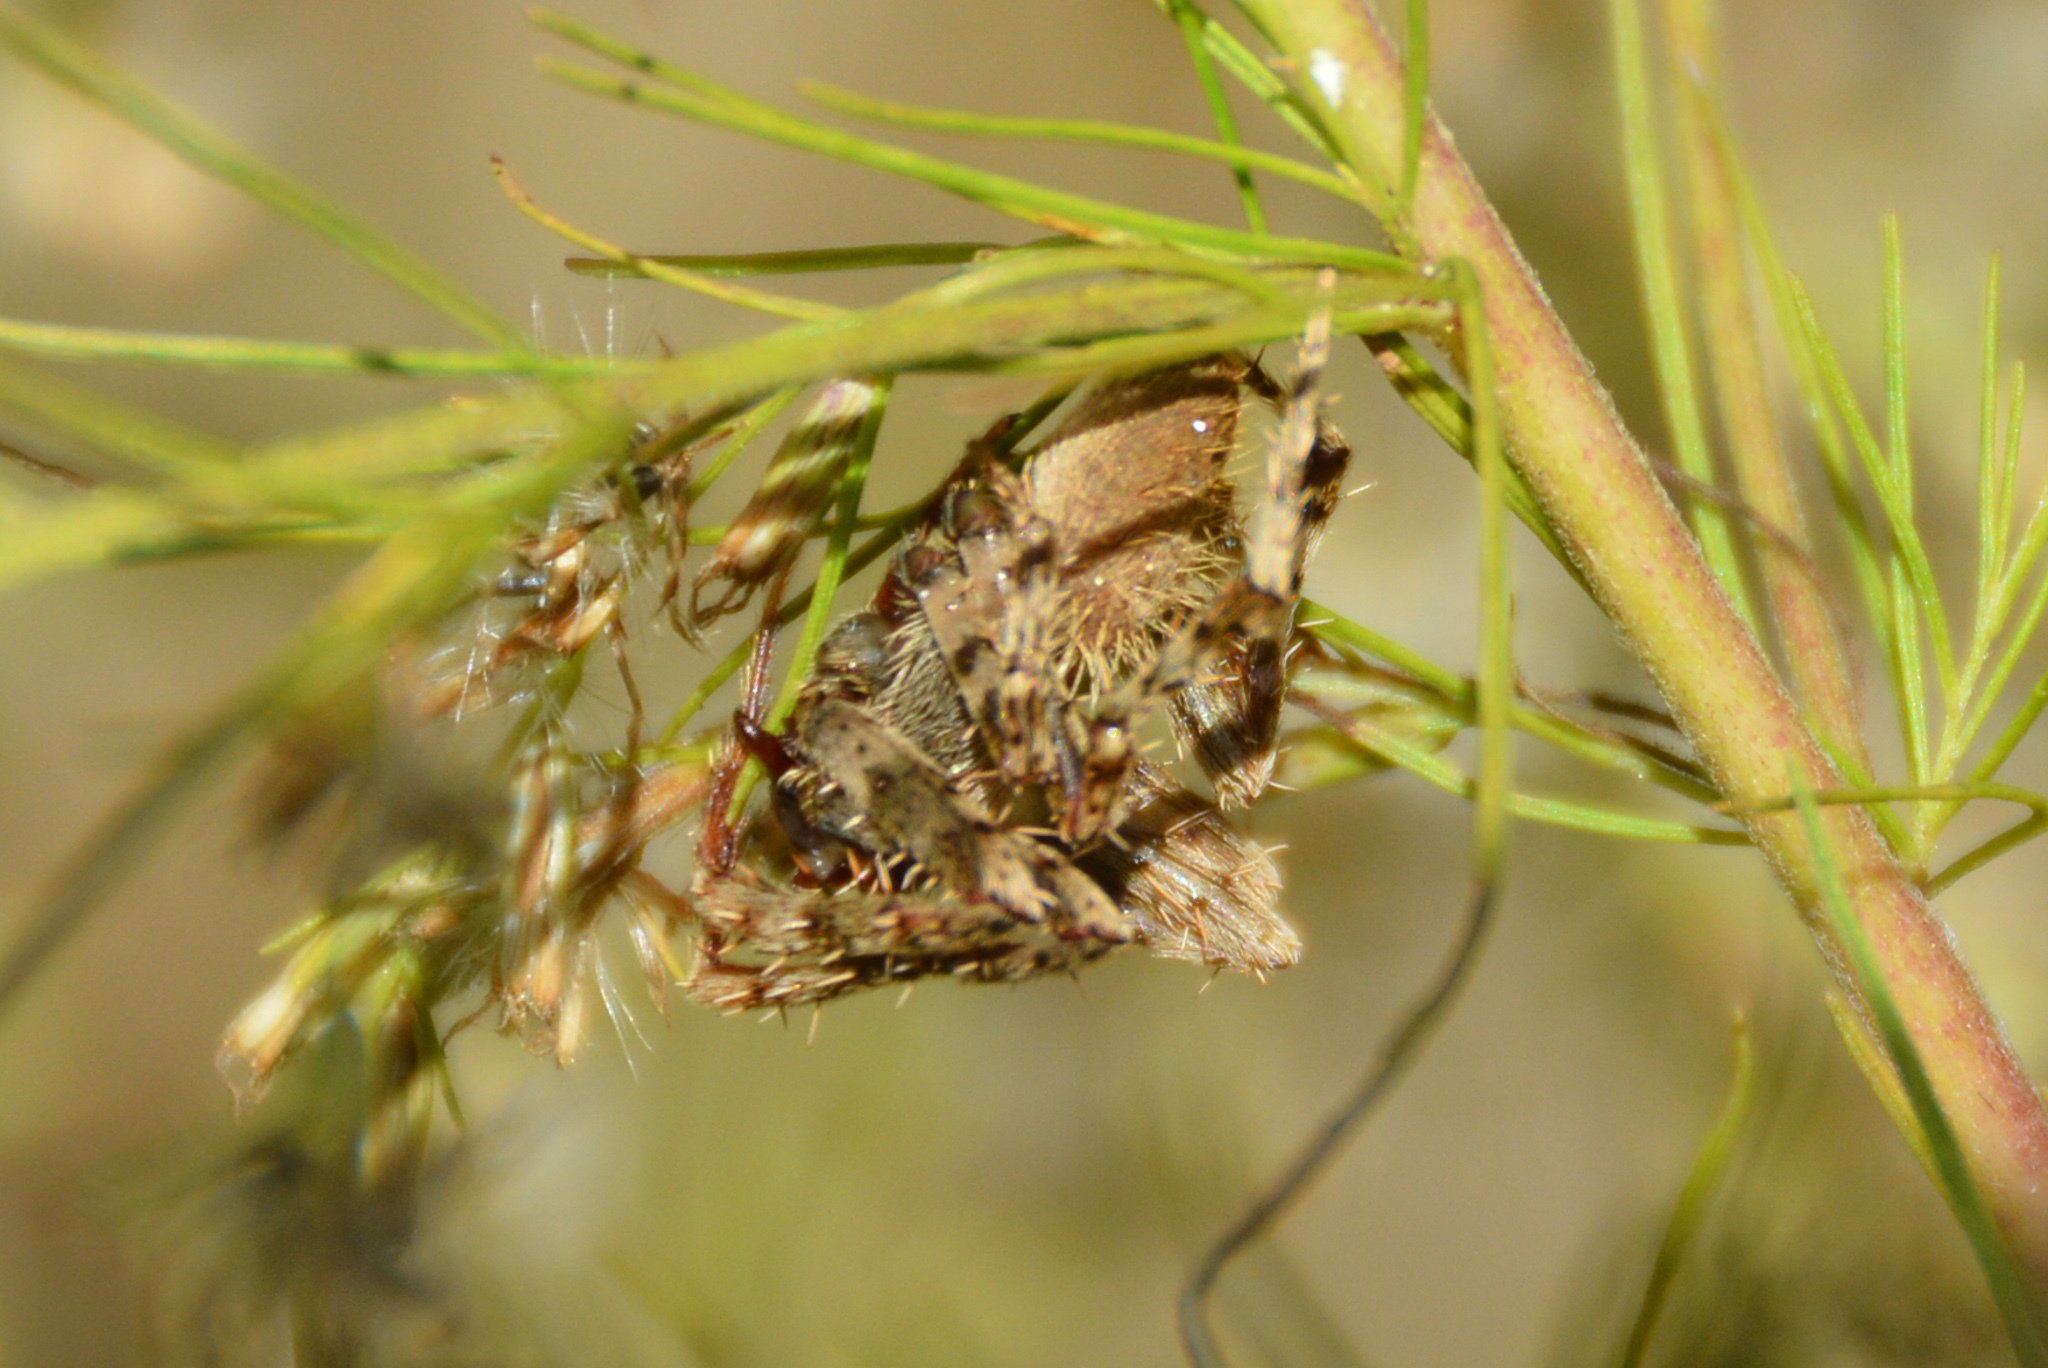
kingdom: Animalia
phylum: Arthropoda
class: Arachnida
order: Araneae
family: Araneidae
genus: Eriophora
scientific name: Eriophora ravilla
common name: Orb weavers
